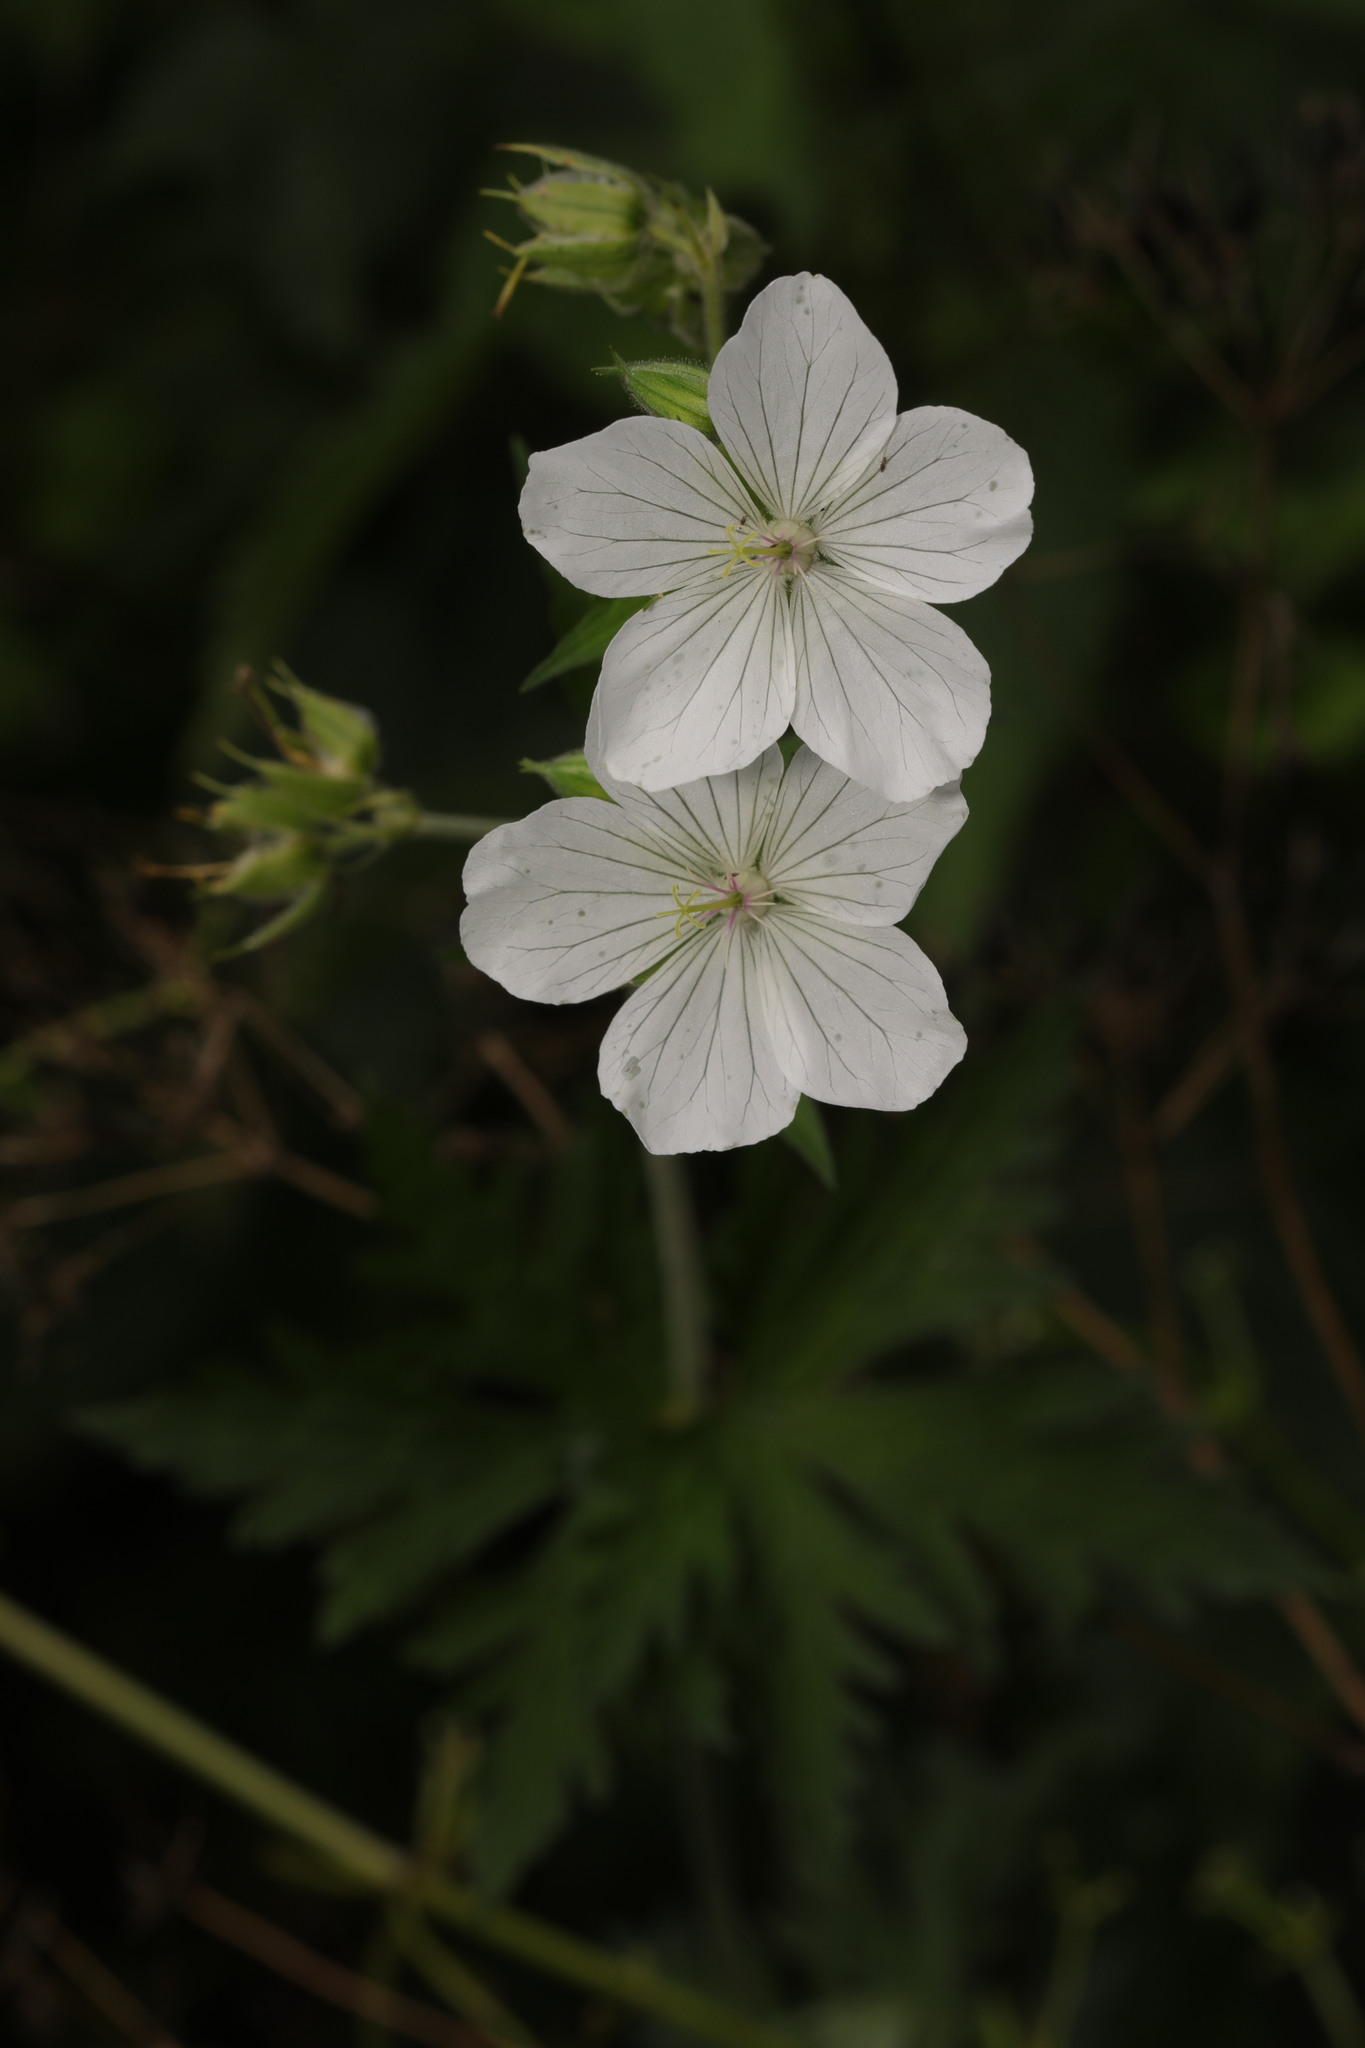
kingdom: Plantae
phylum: Tracheophyta
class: Magnoliopsida
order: Geraniales
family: Geraniaceae
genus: Geranium
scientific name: Geranium pratense
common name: Meadow crane's-bill
